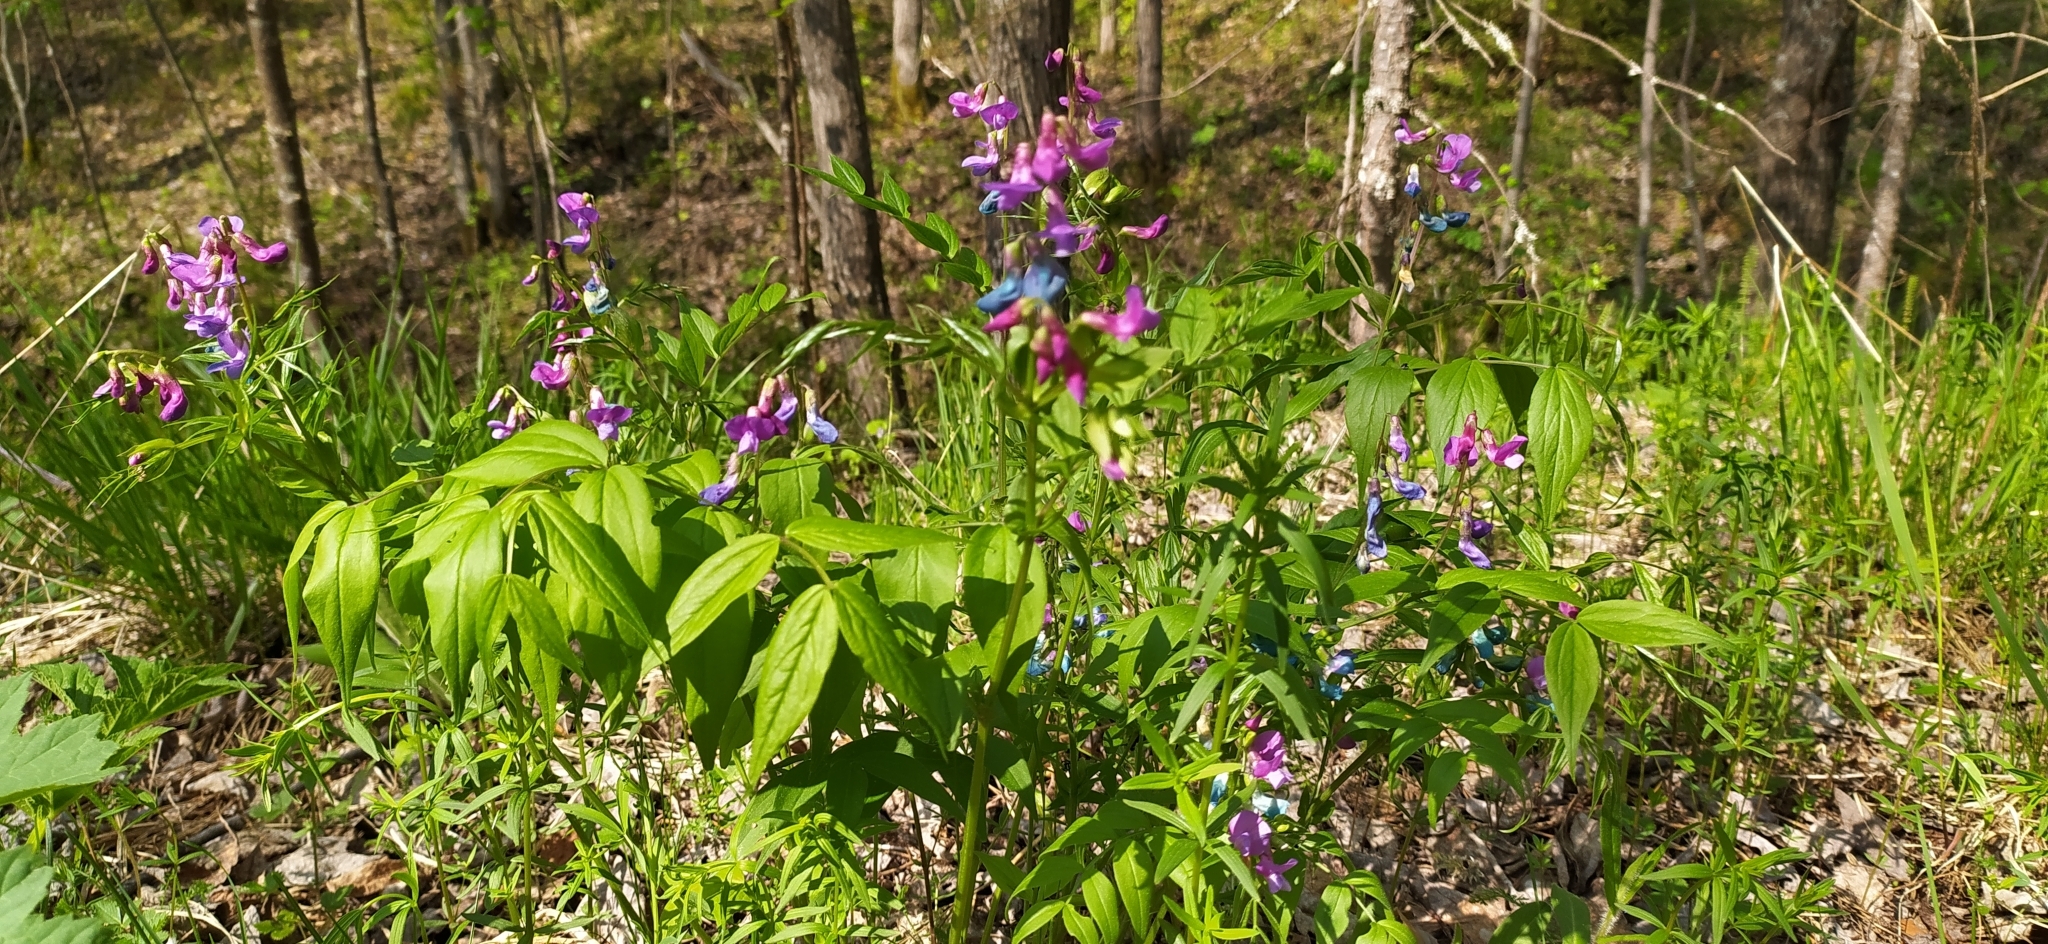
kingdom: Plantae
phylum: Tracheophyta
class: Magnoliopsida
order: Fabales
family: Fabaceae
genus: Lathyrus
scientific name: Lathyrus vernus
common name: Spring pea
